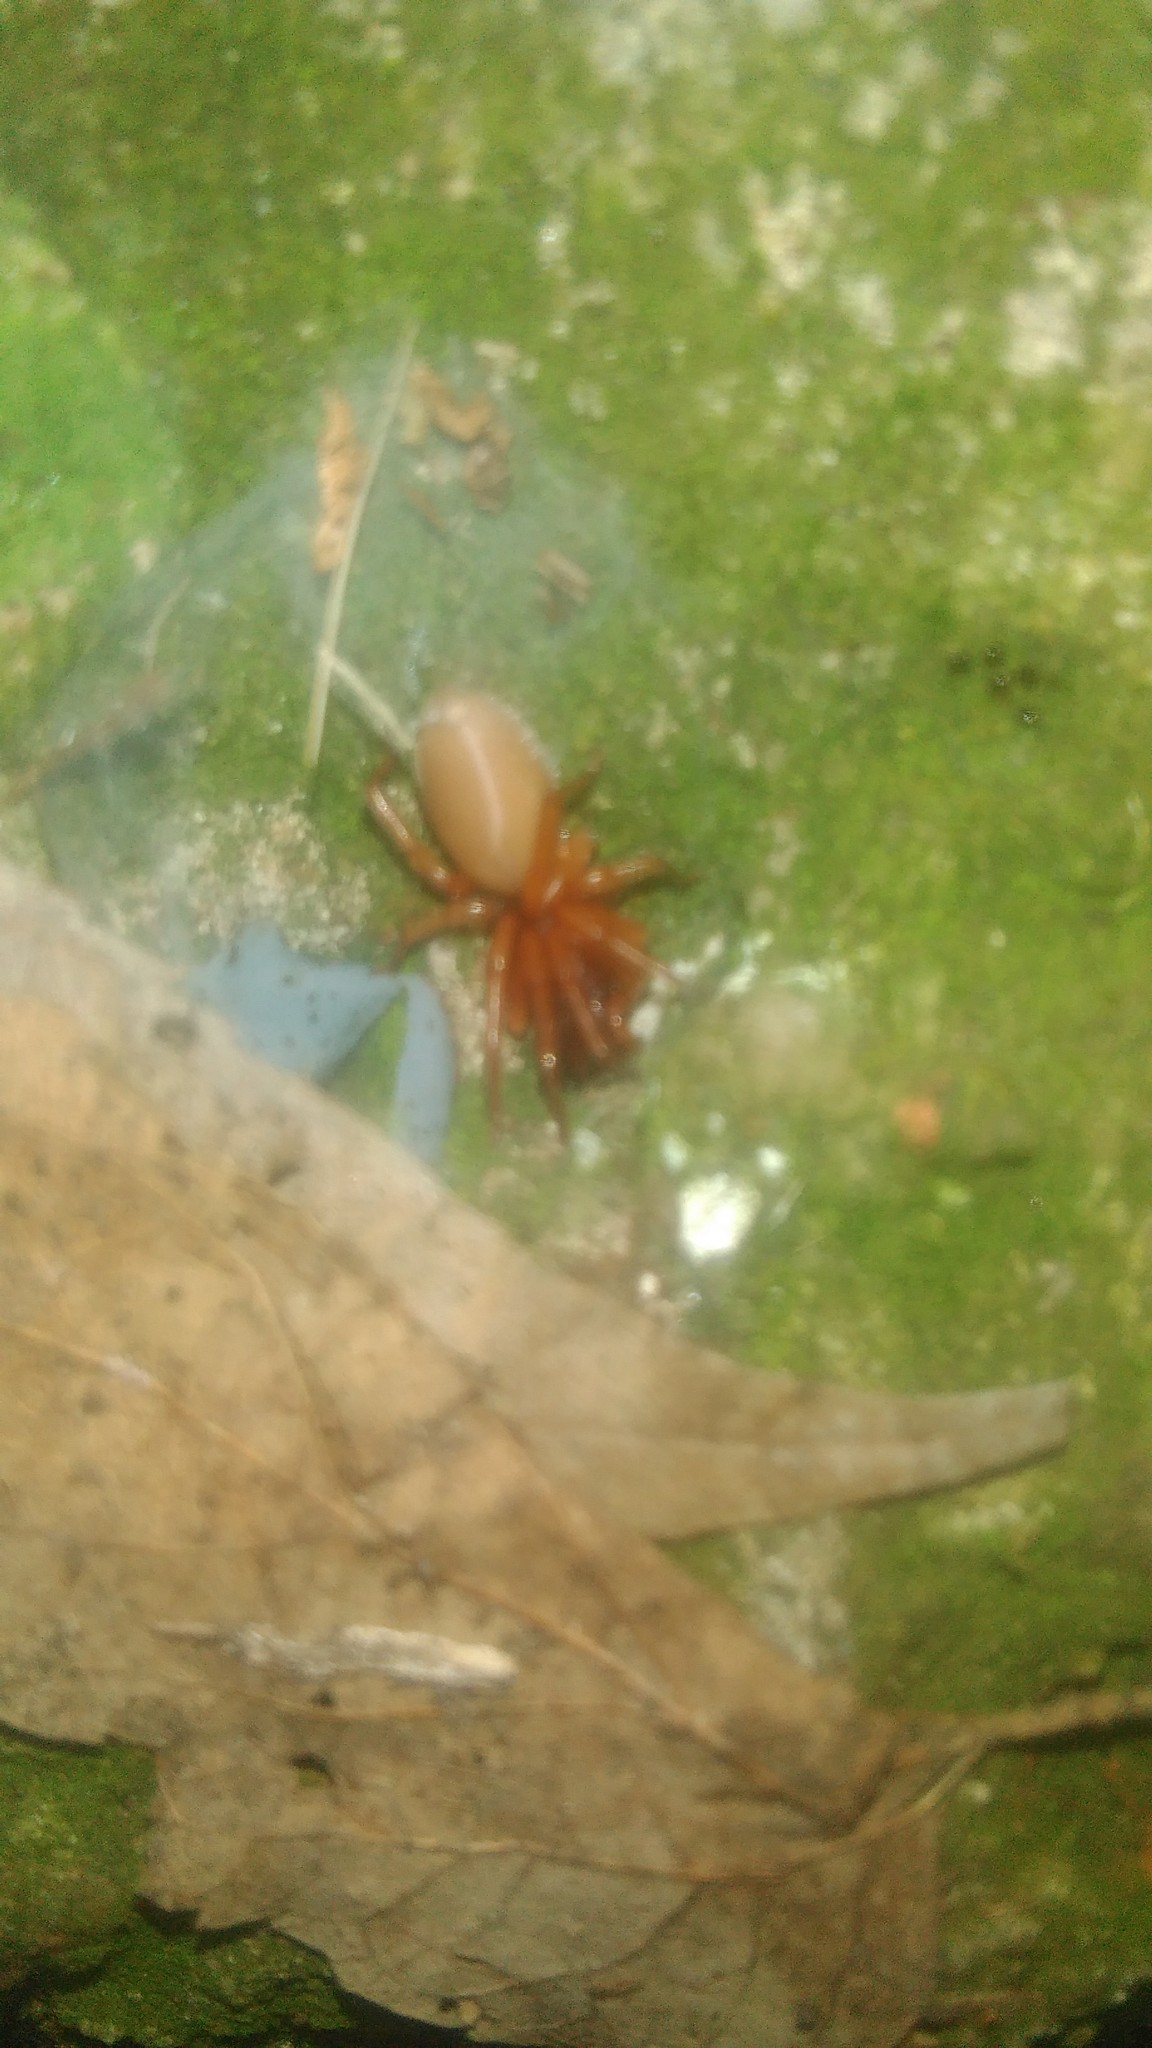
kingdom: Animalia
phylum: Arthropoda
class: Arachnida
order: Araneae
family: Dysderidae
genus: Dysdera
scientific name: Dysdera crocata
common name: Woodlouse spider
